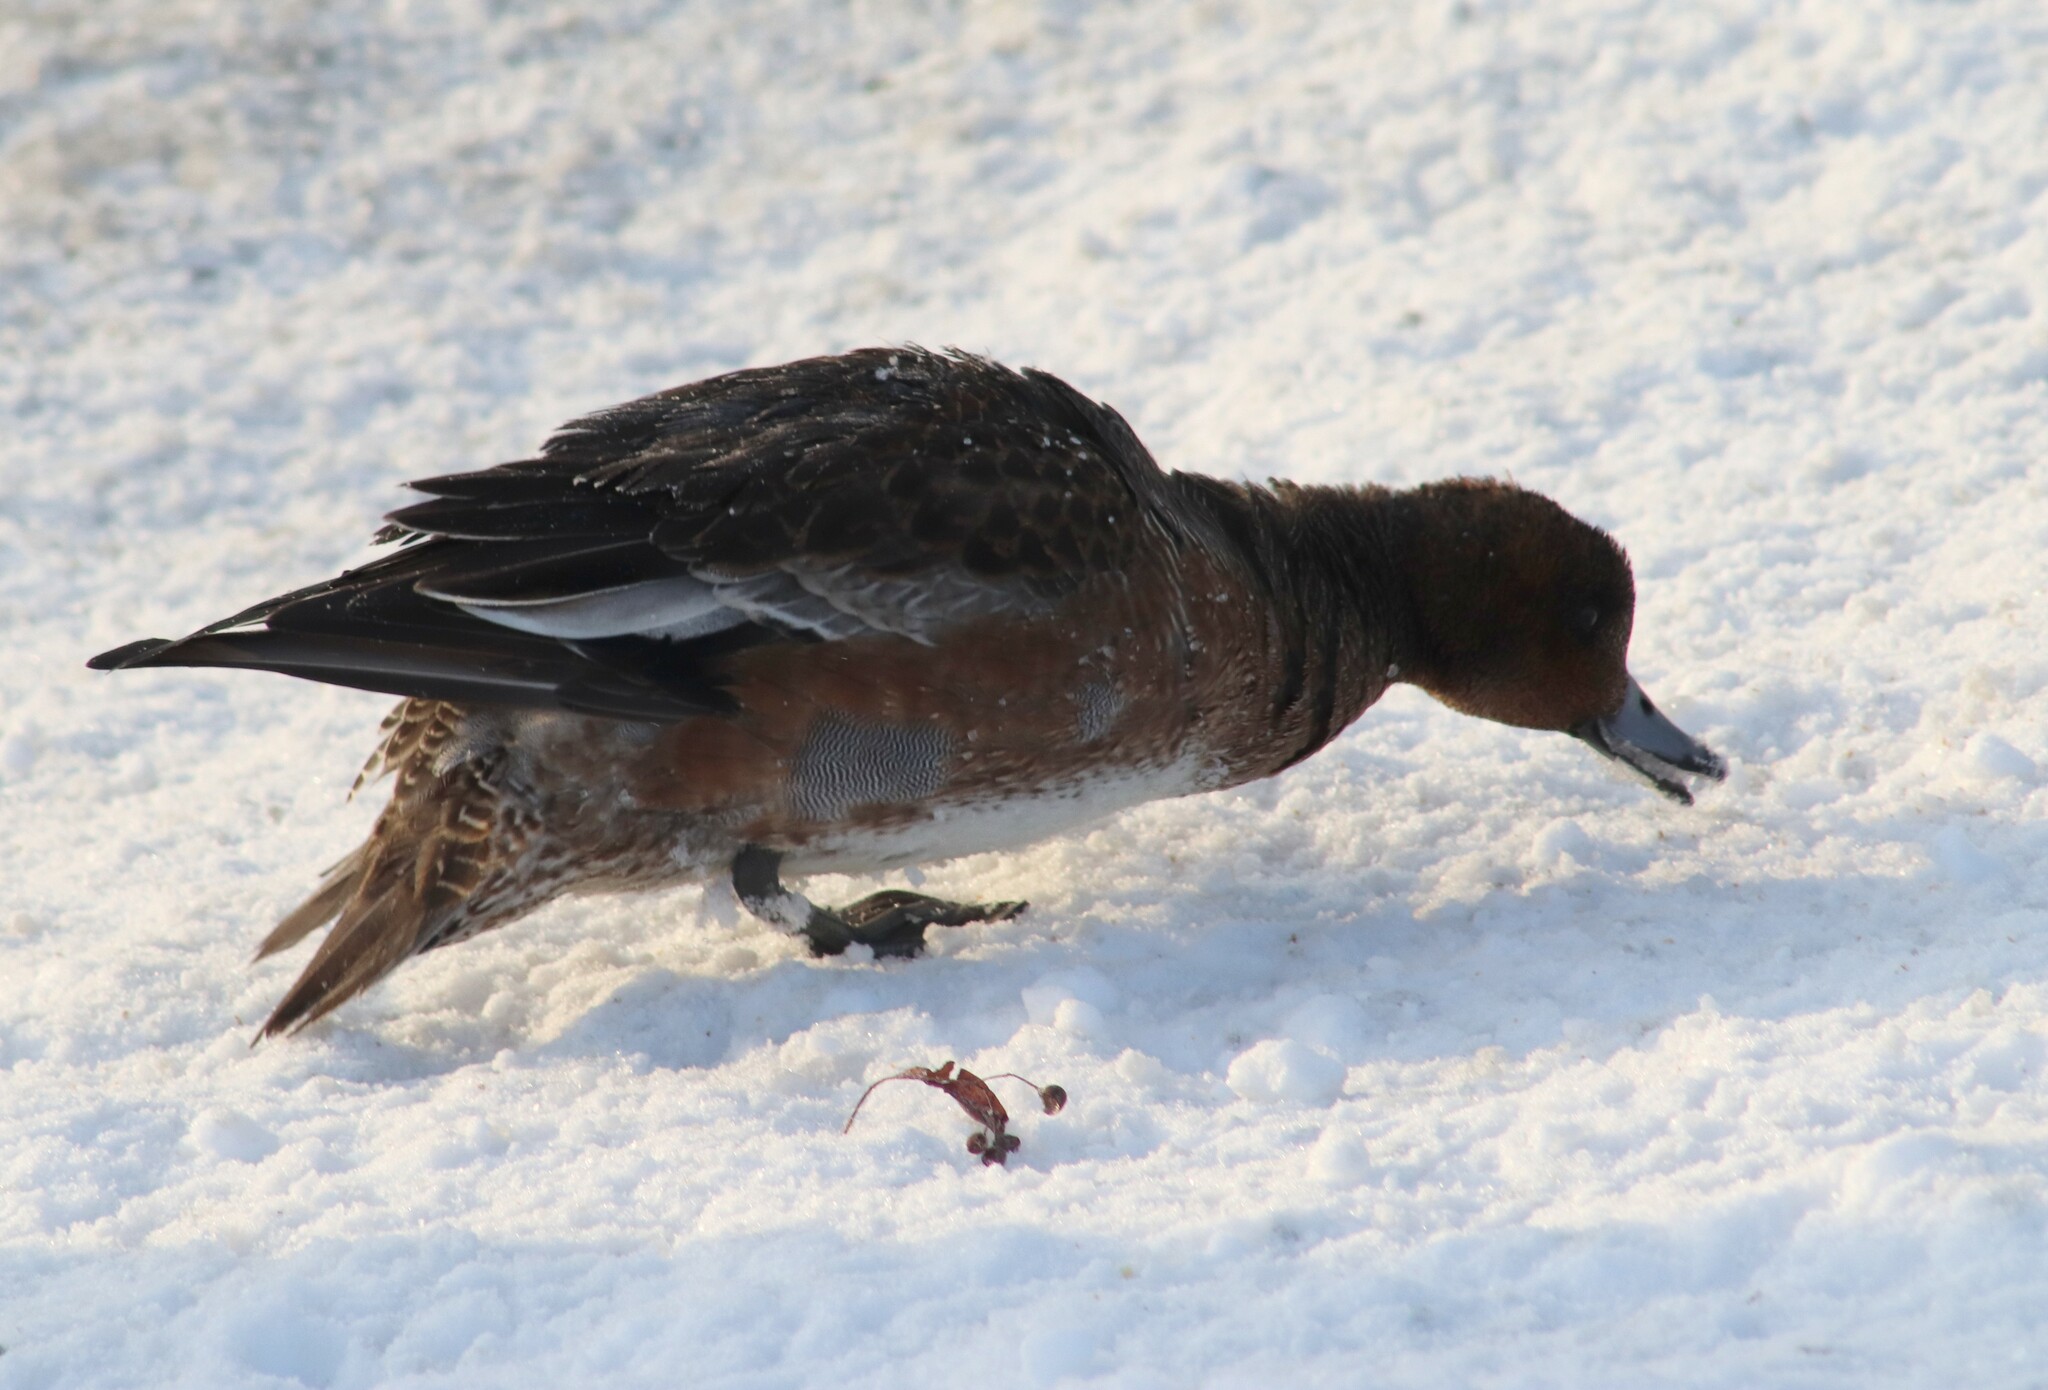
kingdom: Animalia
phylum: Chordata
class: Aves
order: Anseriformes
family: Anatidae
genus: Mareca
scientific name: Mareca penelope
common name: Eurasian wigeon
